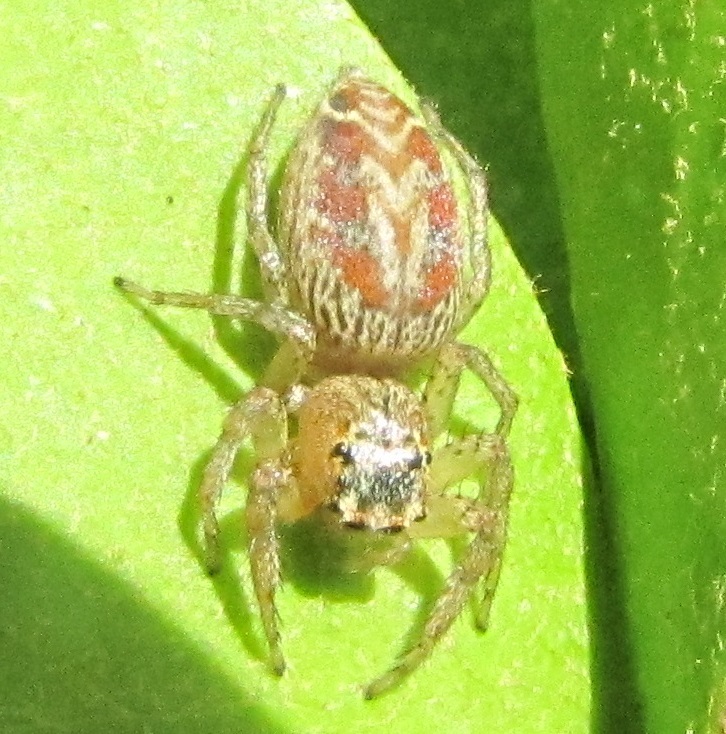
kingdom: Animalia
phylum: Arthropoda
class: Arachnida
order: Araneae
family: Salticidae
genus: Maevia
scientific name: Maevia inclemens
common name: Dimorphic jumper
